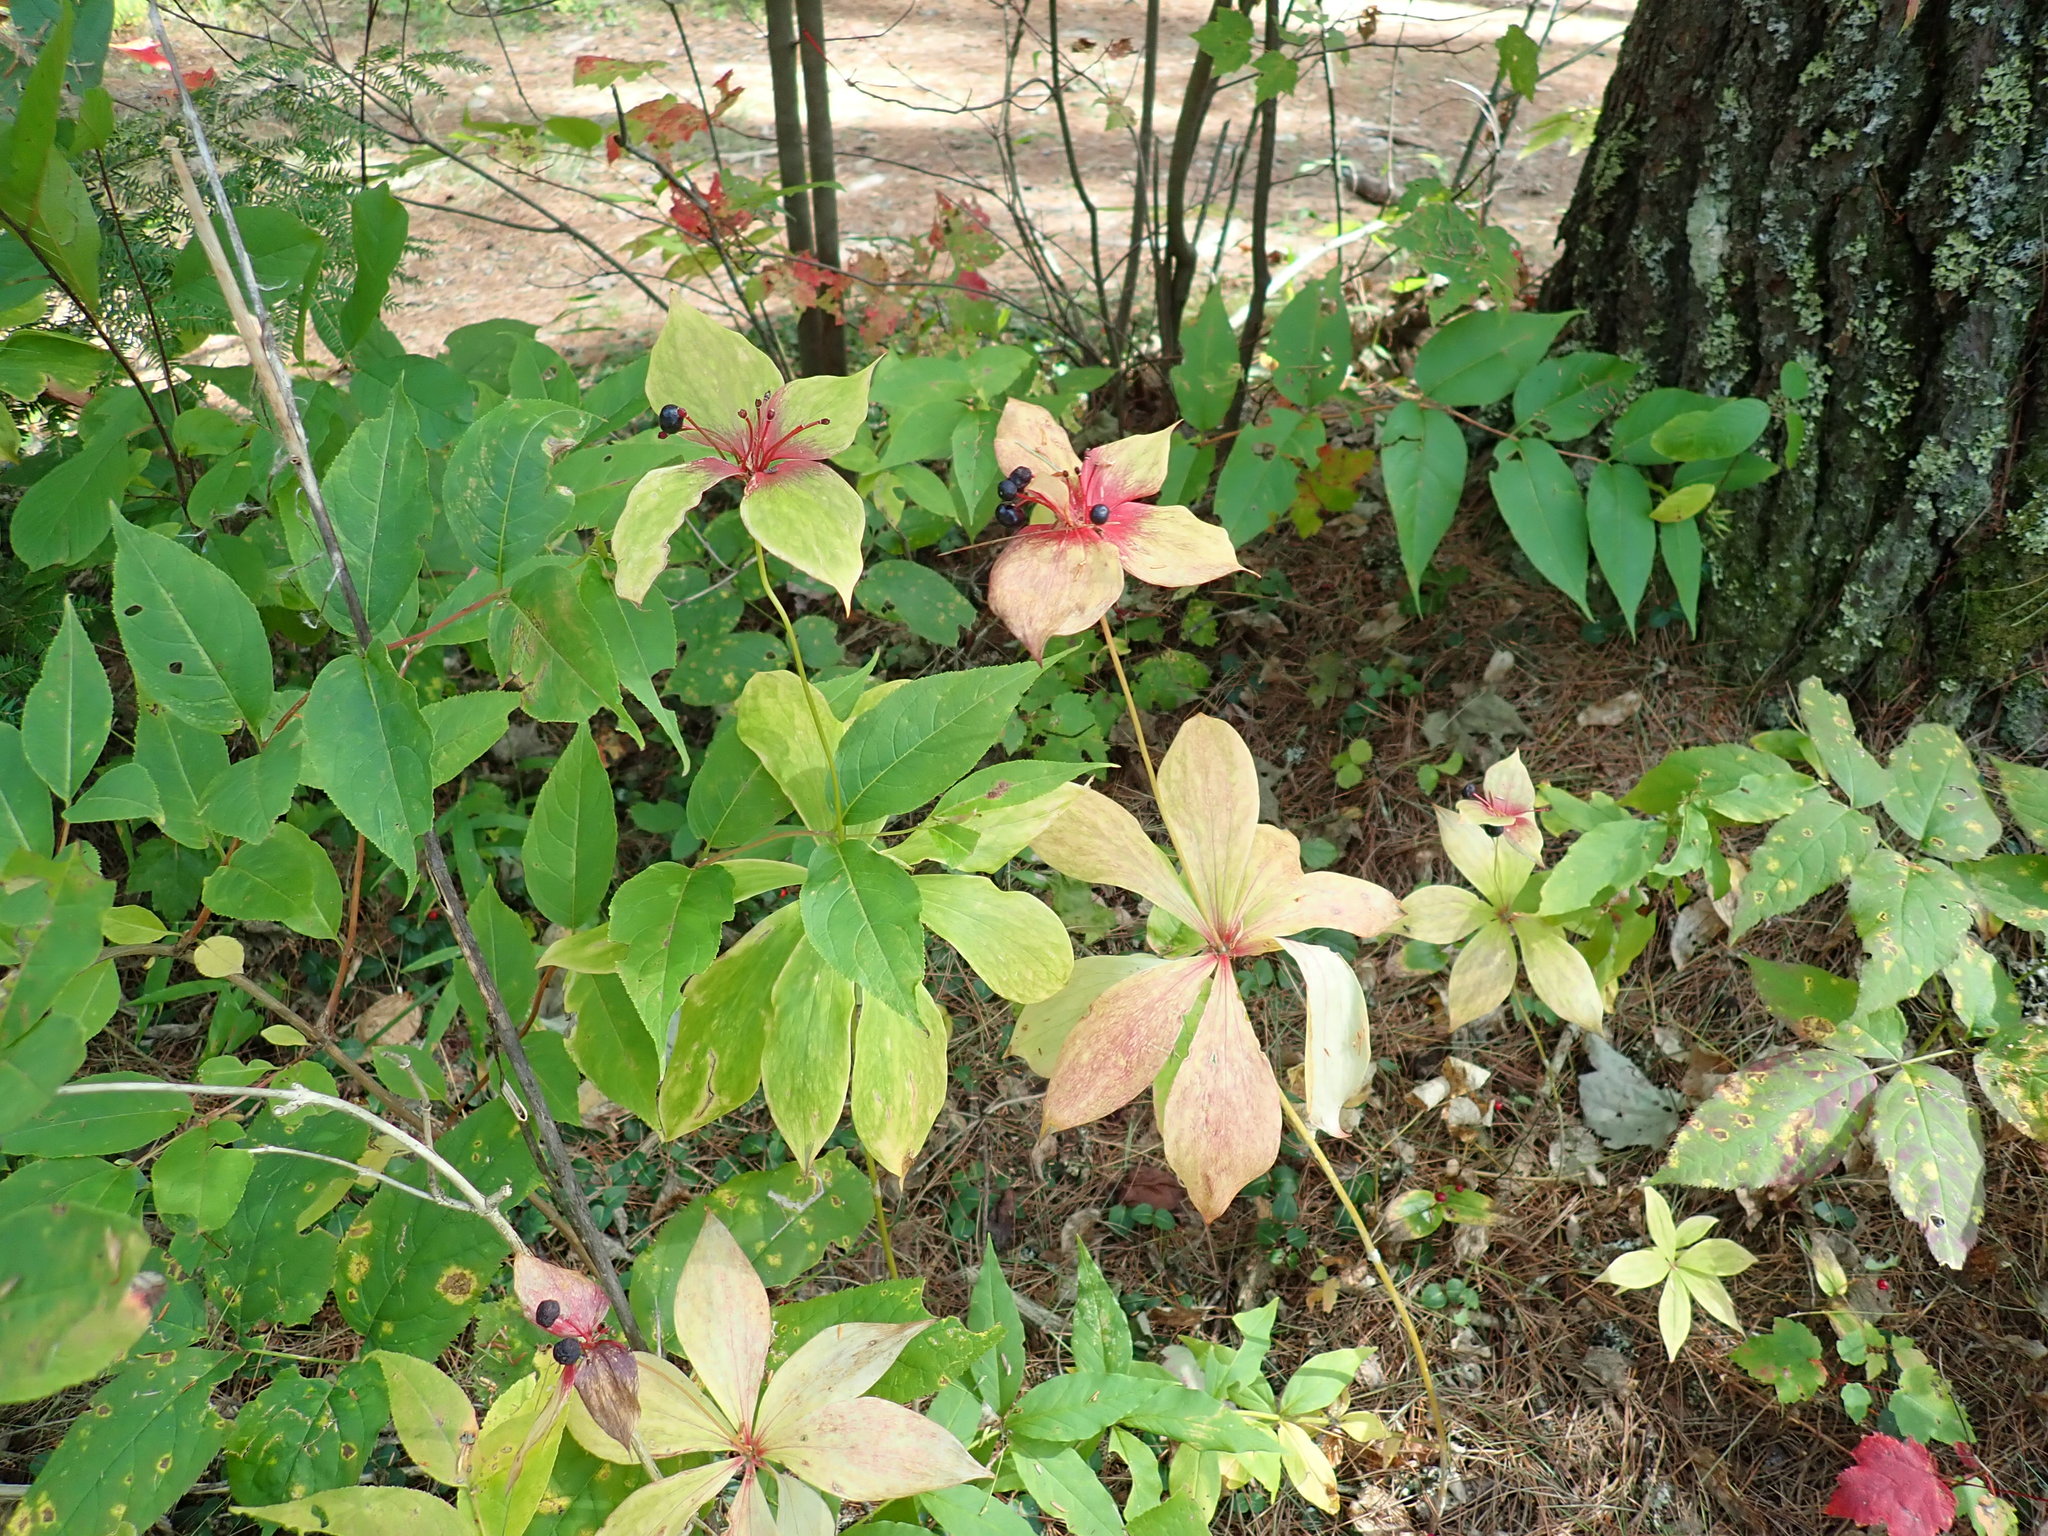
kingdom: Plantae
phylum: Tracheophyta
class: Liliopsida
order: Liliales
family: Liliaceae
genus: Medeola
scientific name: Medeola virginiana
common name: Indian cucumber-root
